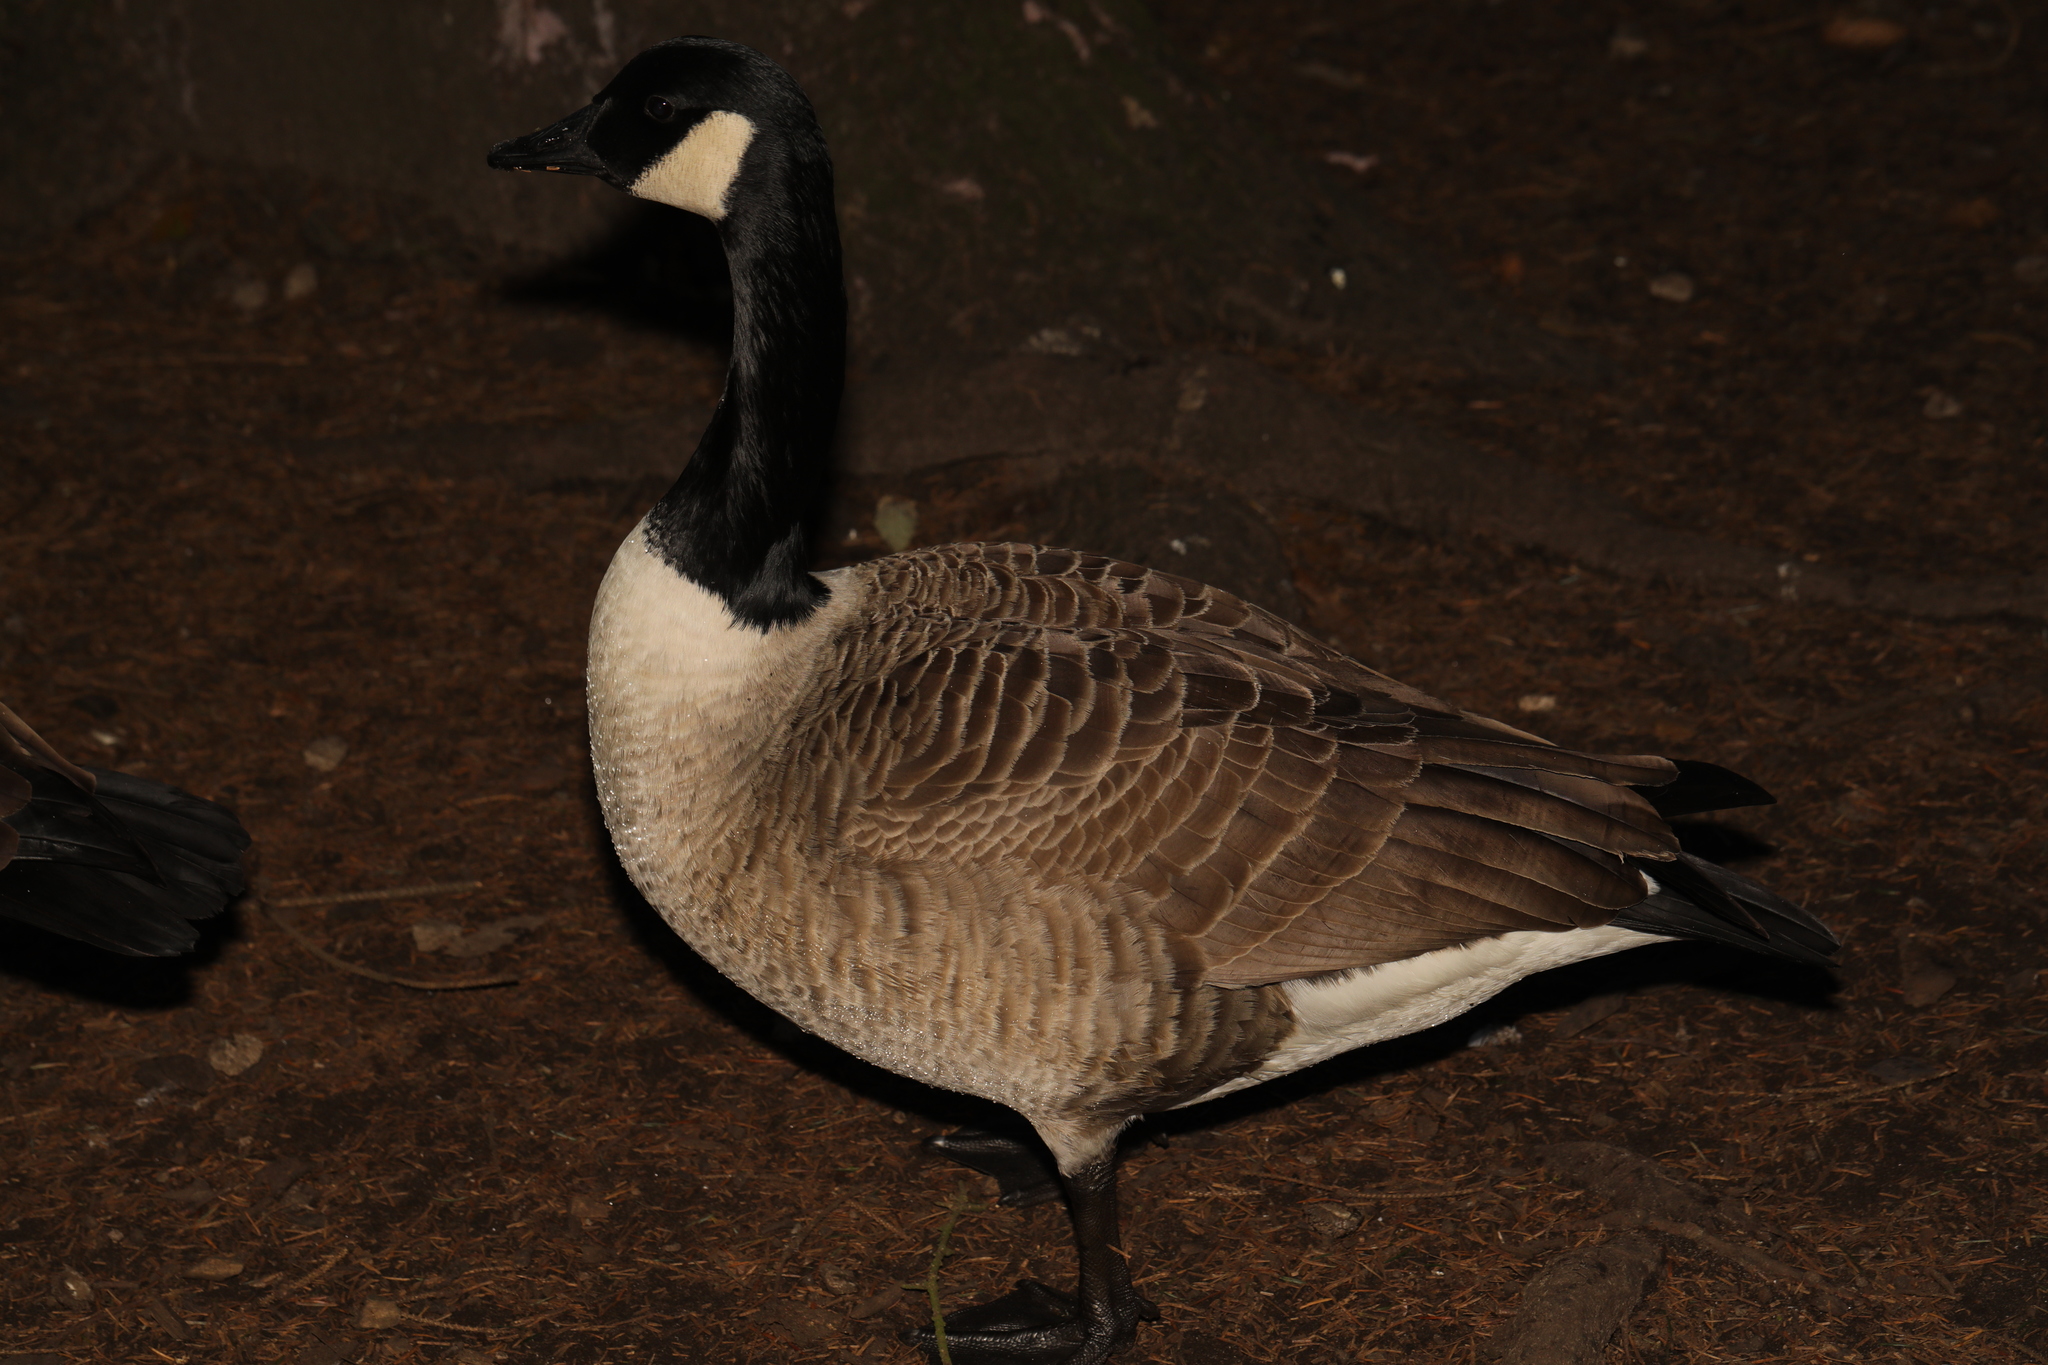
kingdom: Animalia
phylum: Chordata
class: Aves
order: Anseriformes
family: Anatidae
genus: Branta
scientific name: Branta canadensis
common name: Canada goose
